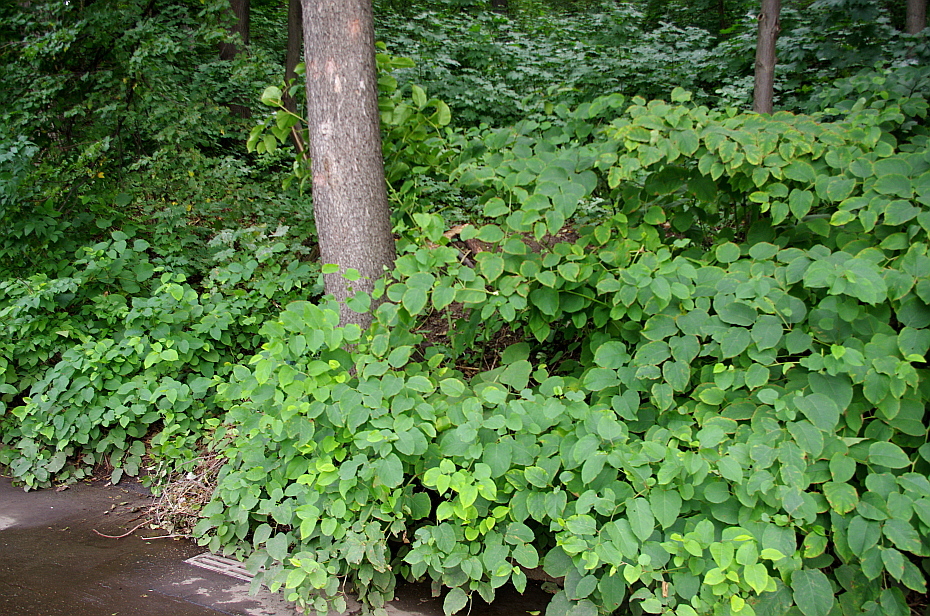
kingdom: Plantae
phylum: Tracheophyta
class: Magnoliopsida
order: Caryophyllales
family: Polygonaceae
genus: Reynoutria
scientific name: Reynoutria bohemica
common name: Bohemian knotweed
